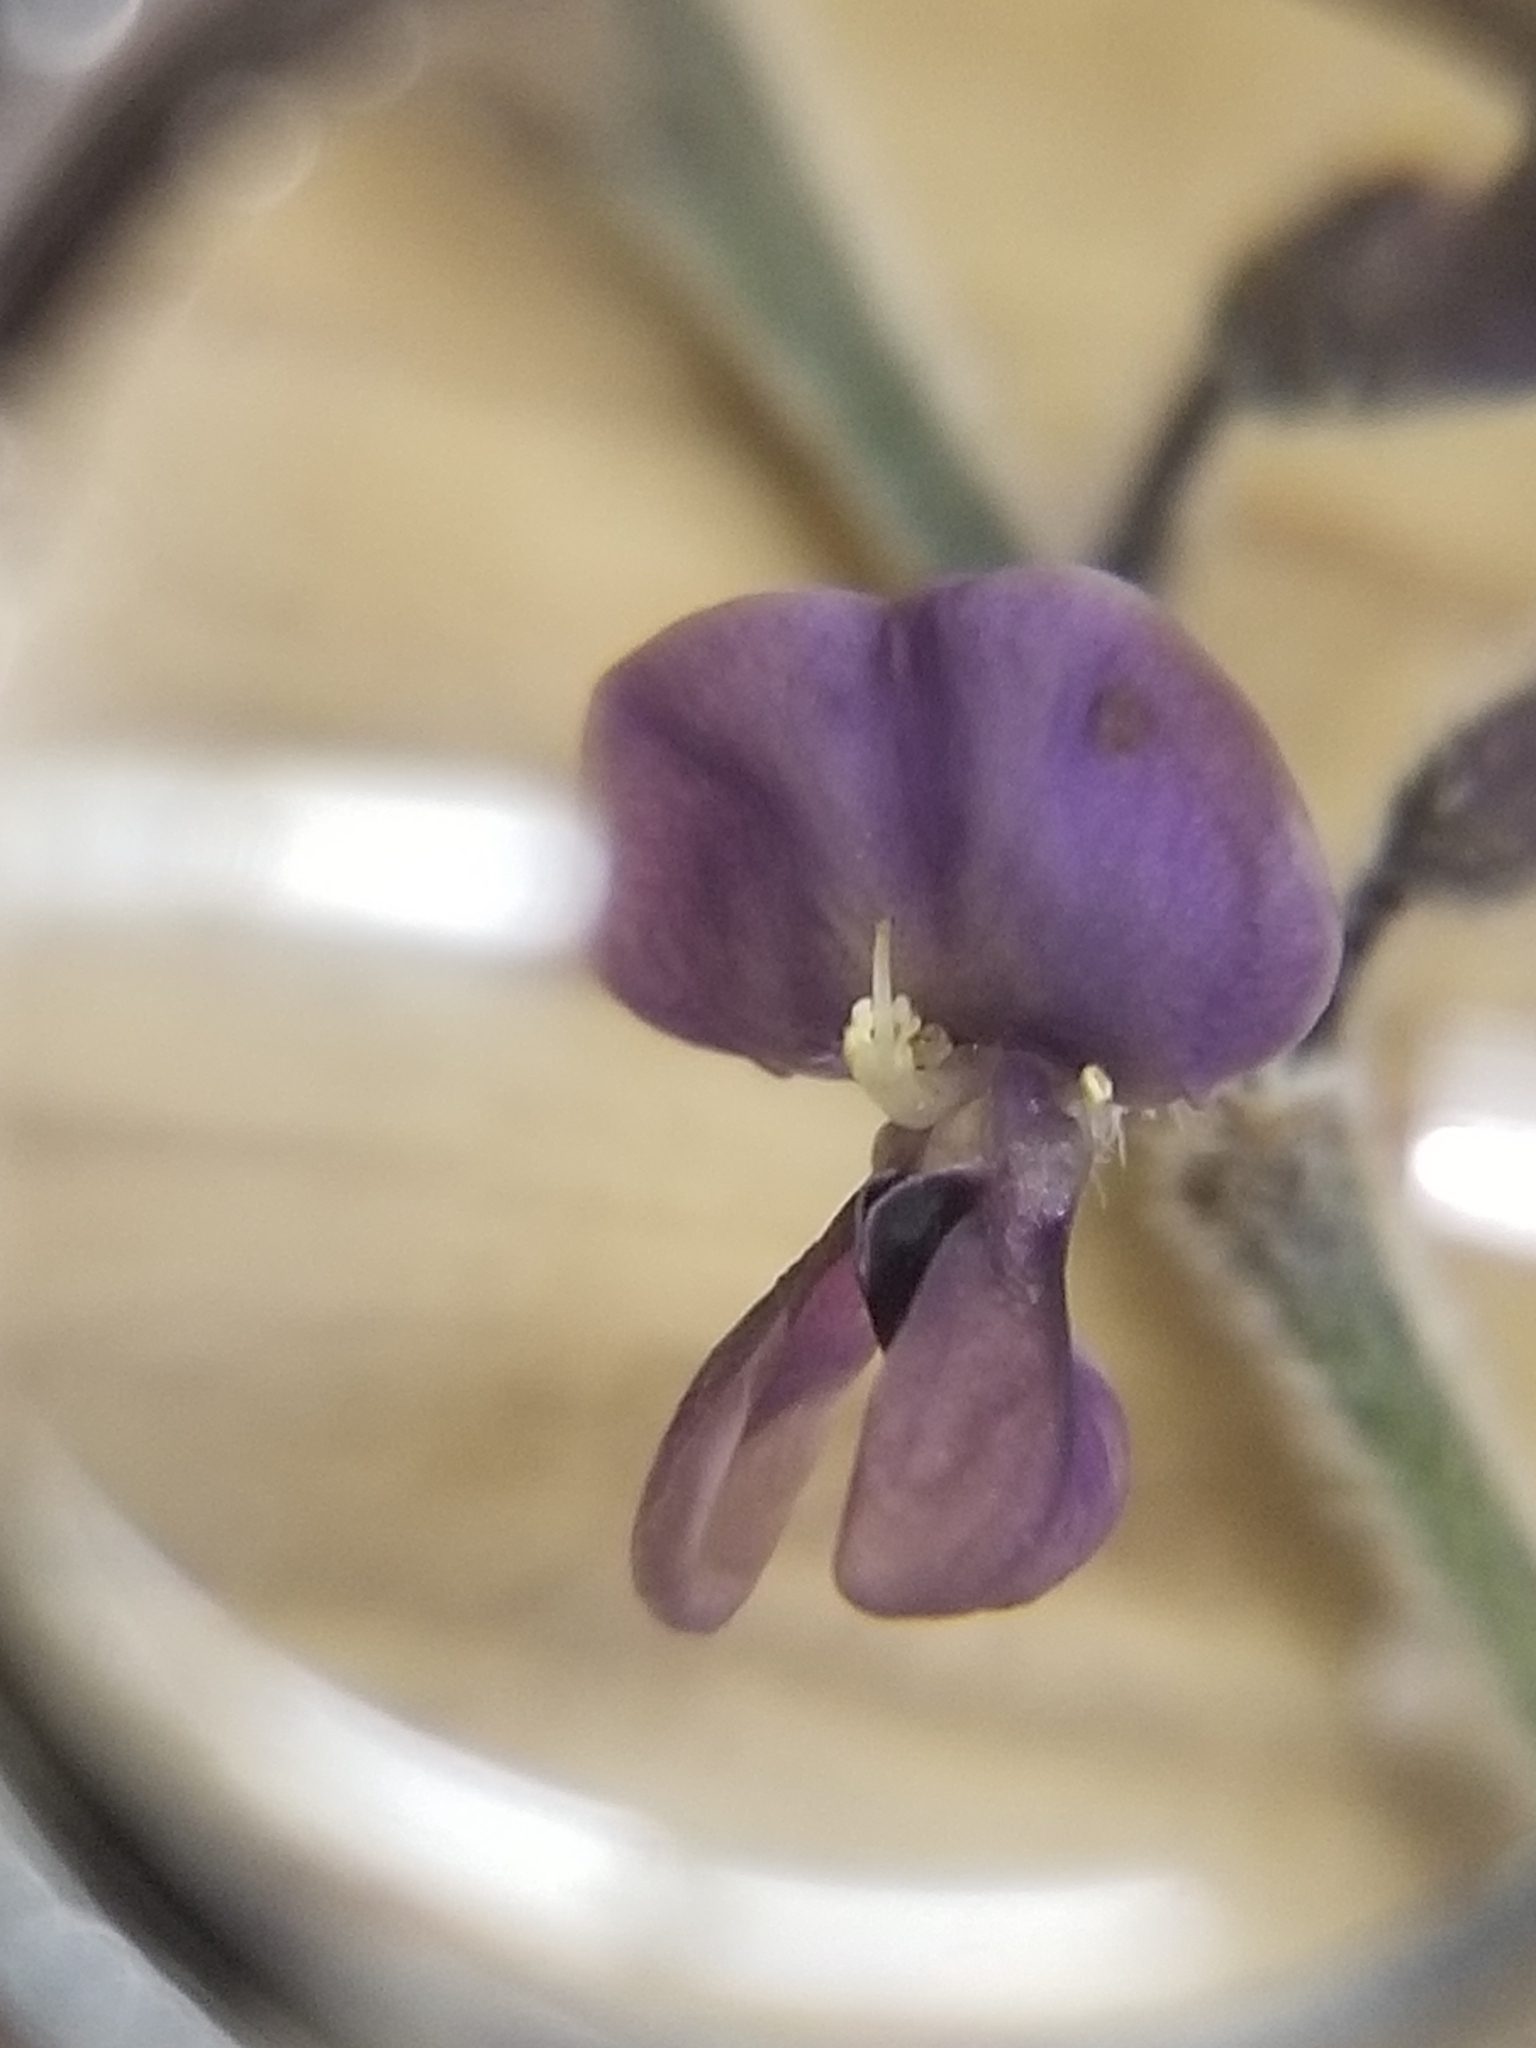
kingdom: Plantae
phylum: Tracheophyta
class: Magnoliopsida
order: Fabales
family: Fabaceae
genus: Pediomelum
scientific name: Pediomelum tenuiflorum
